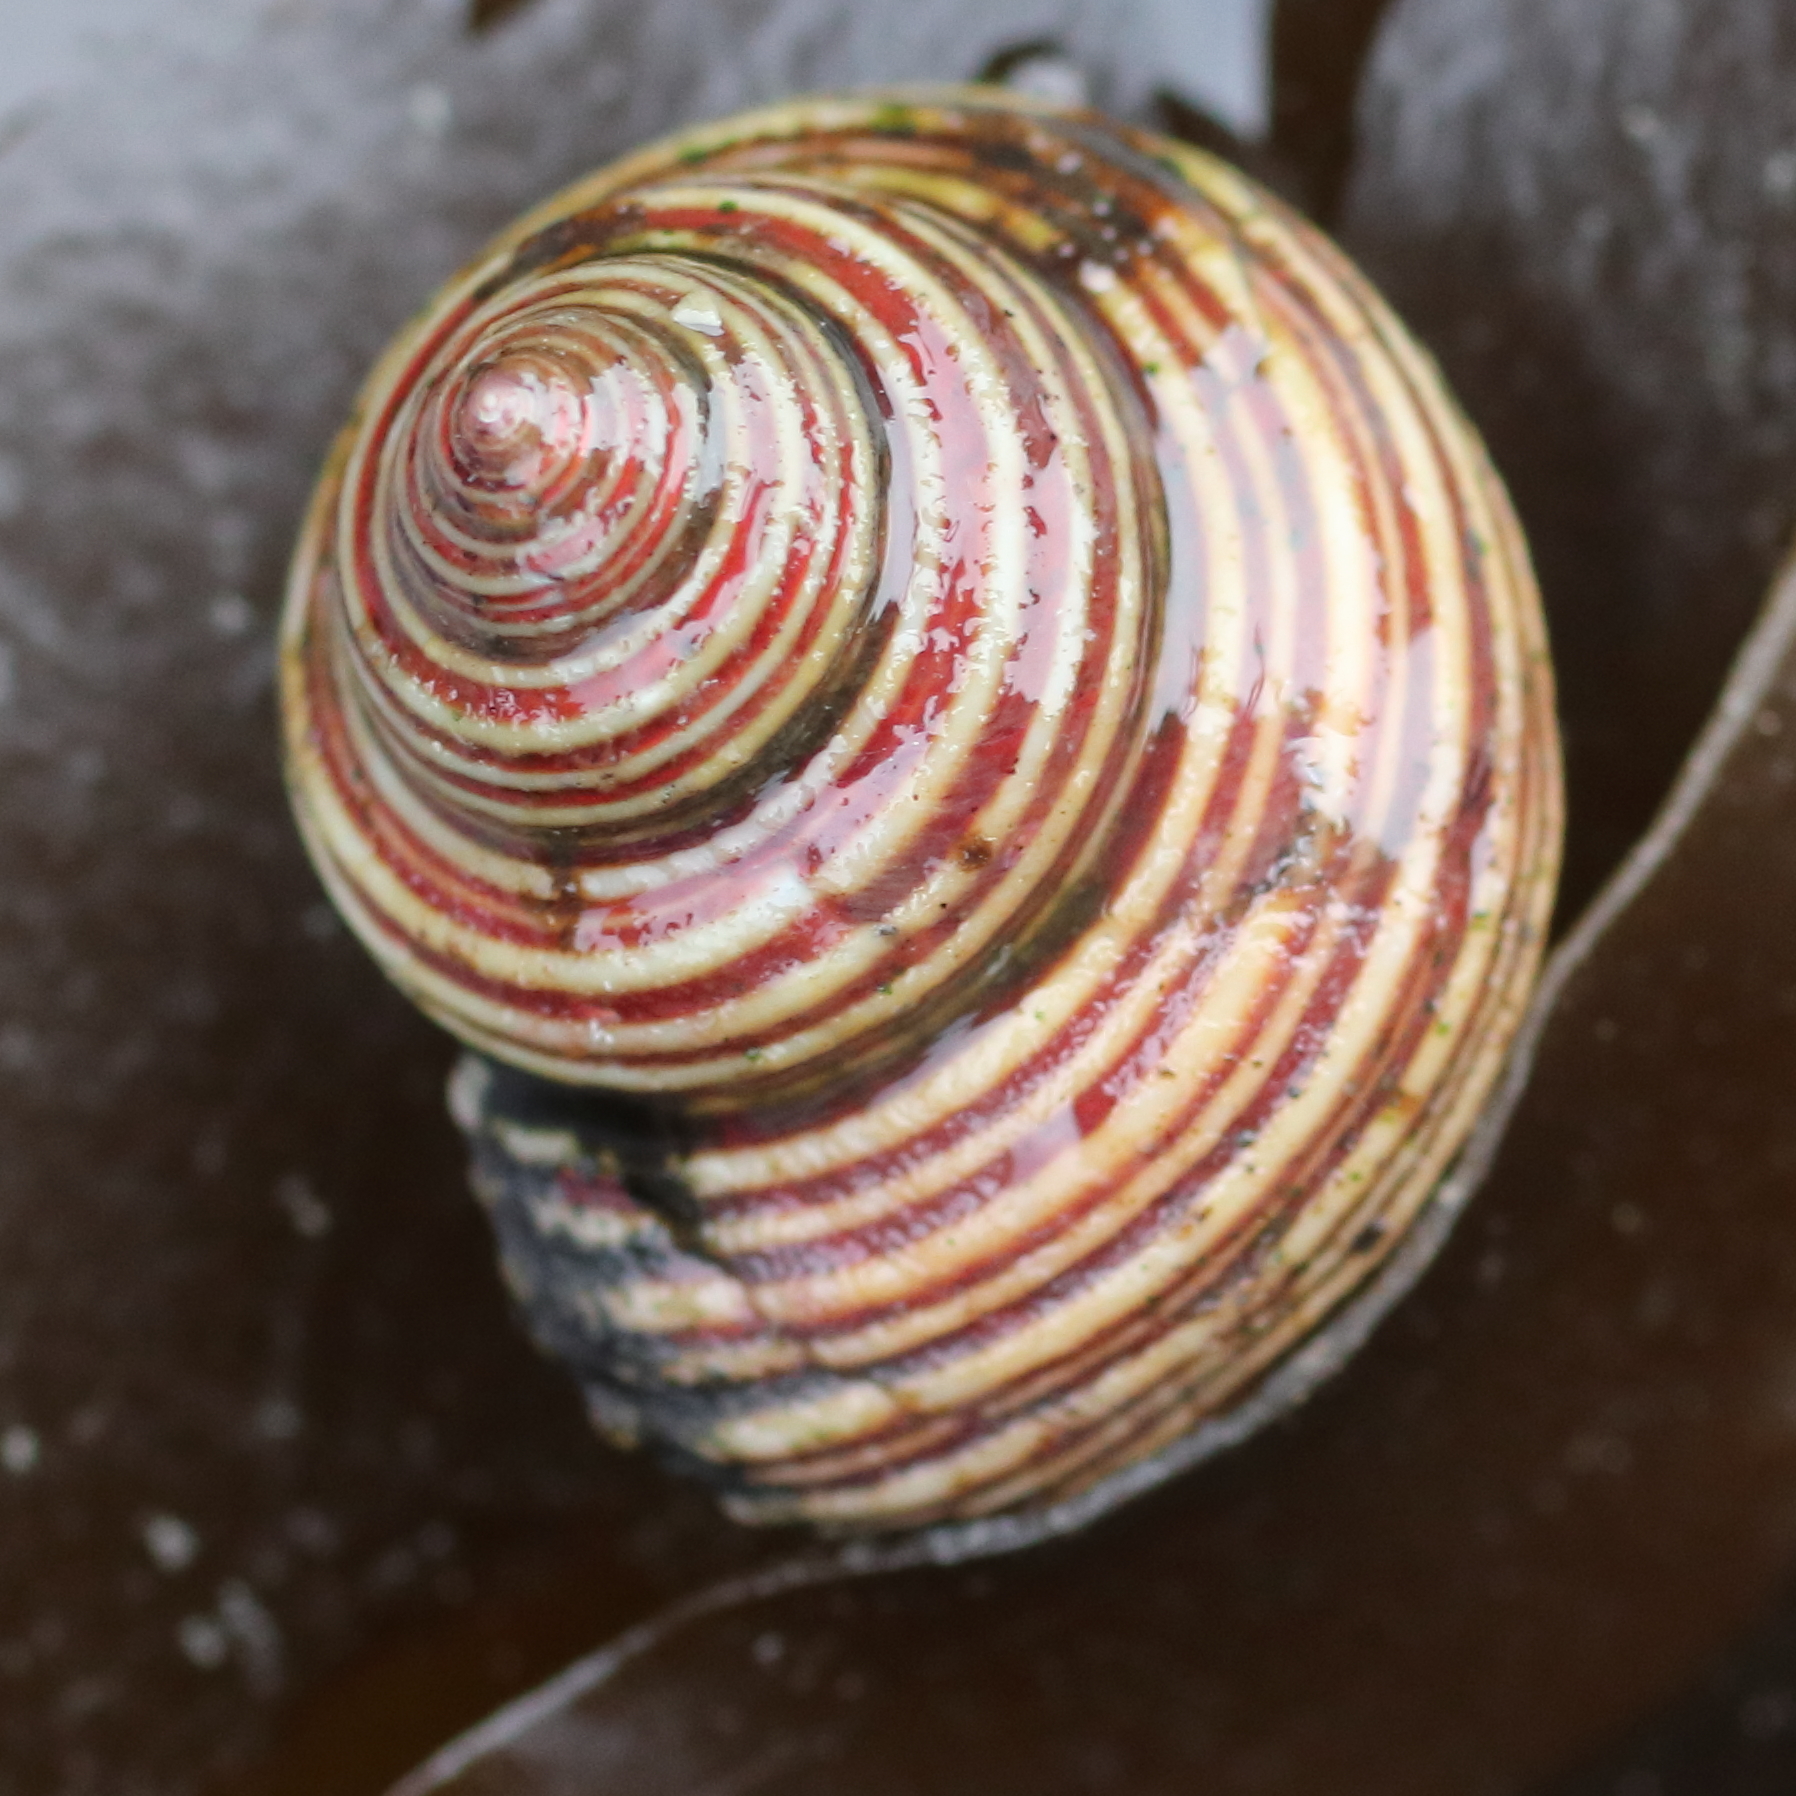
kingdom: Animalia
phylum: Mollusca
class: Gastropoda
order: Trochida
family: Calliostomatidae
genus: Calliostoma
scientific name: Calliostoma ligatum
